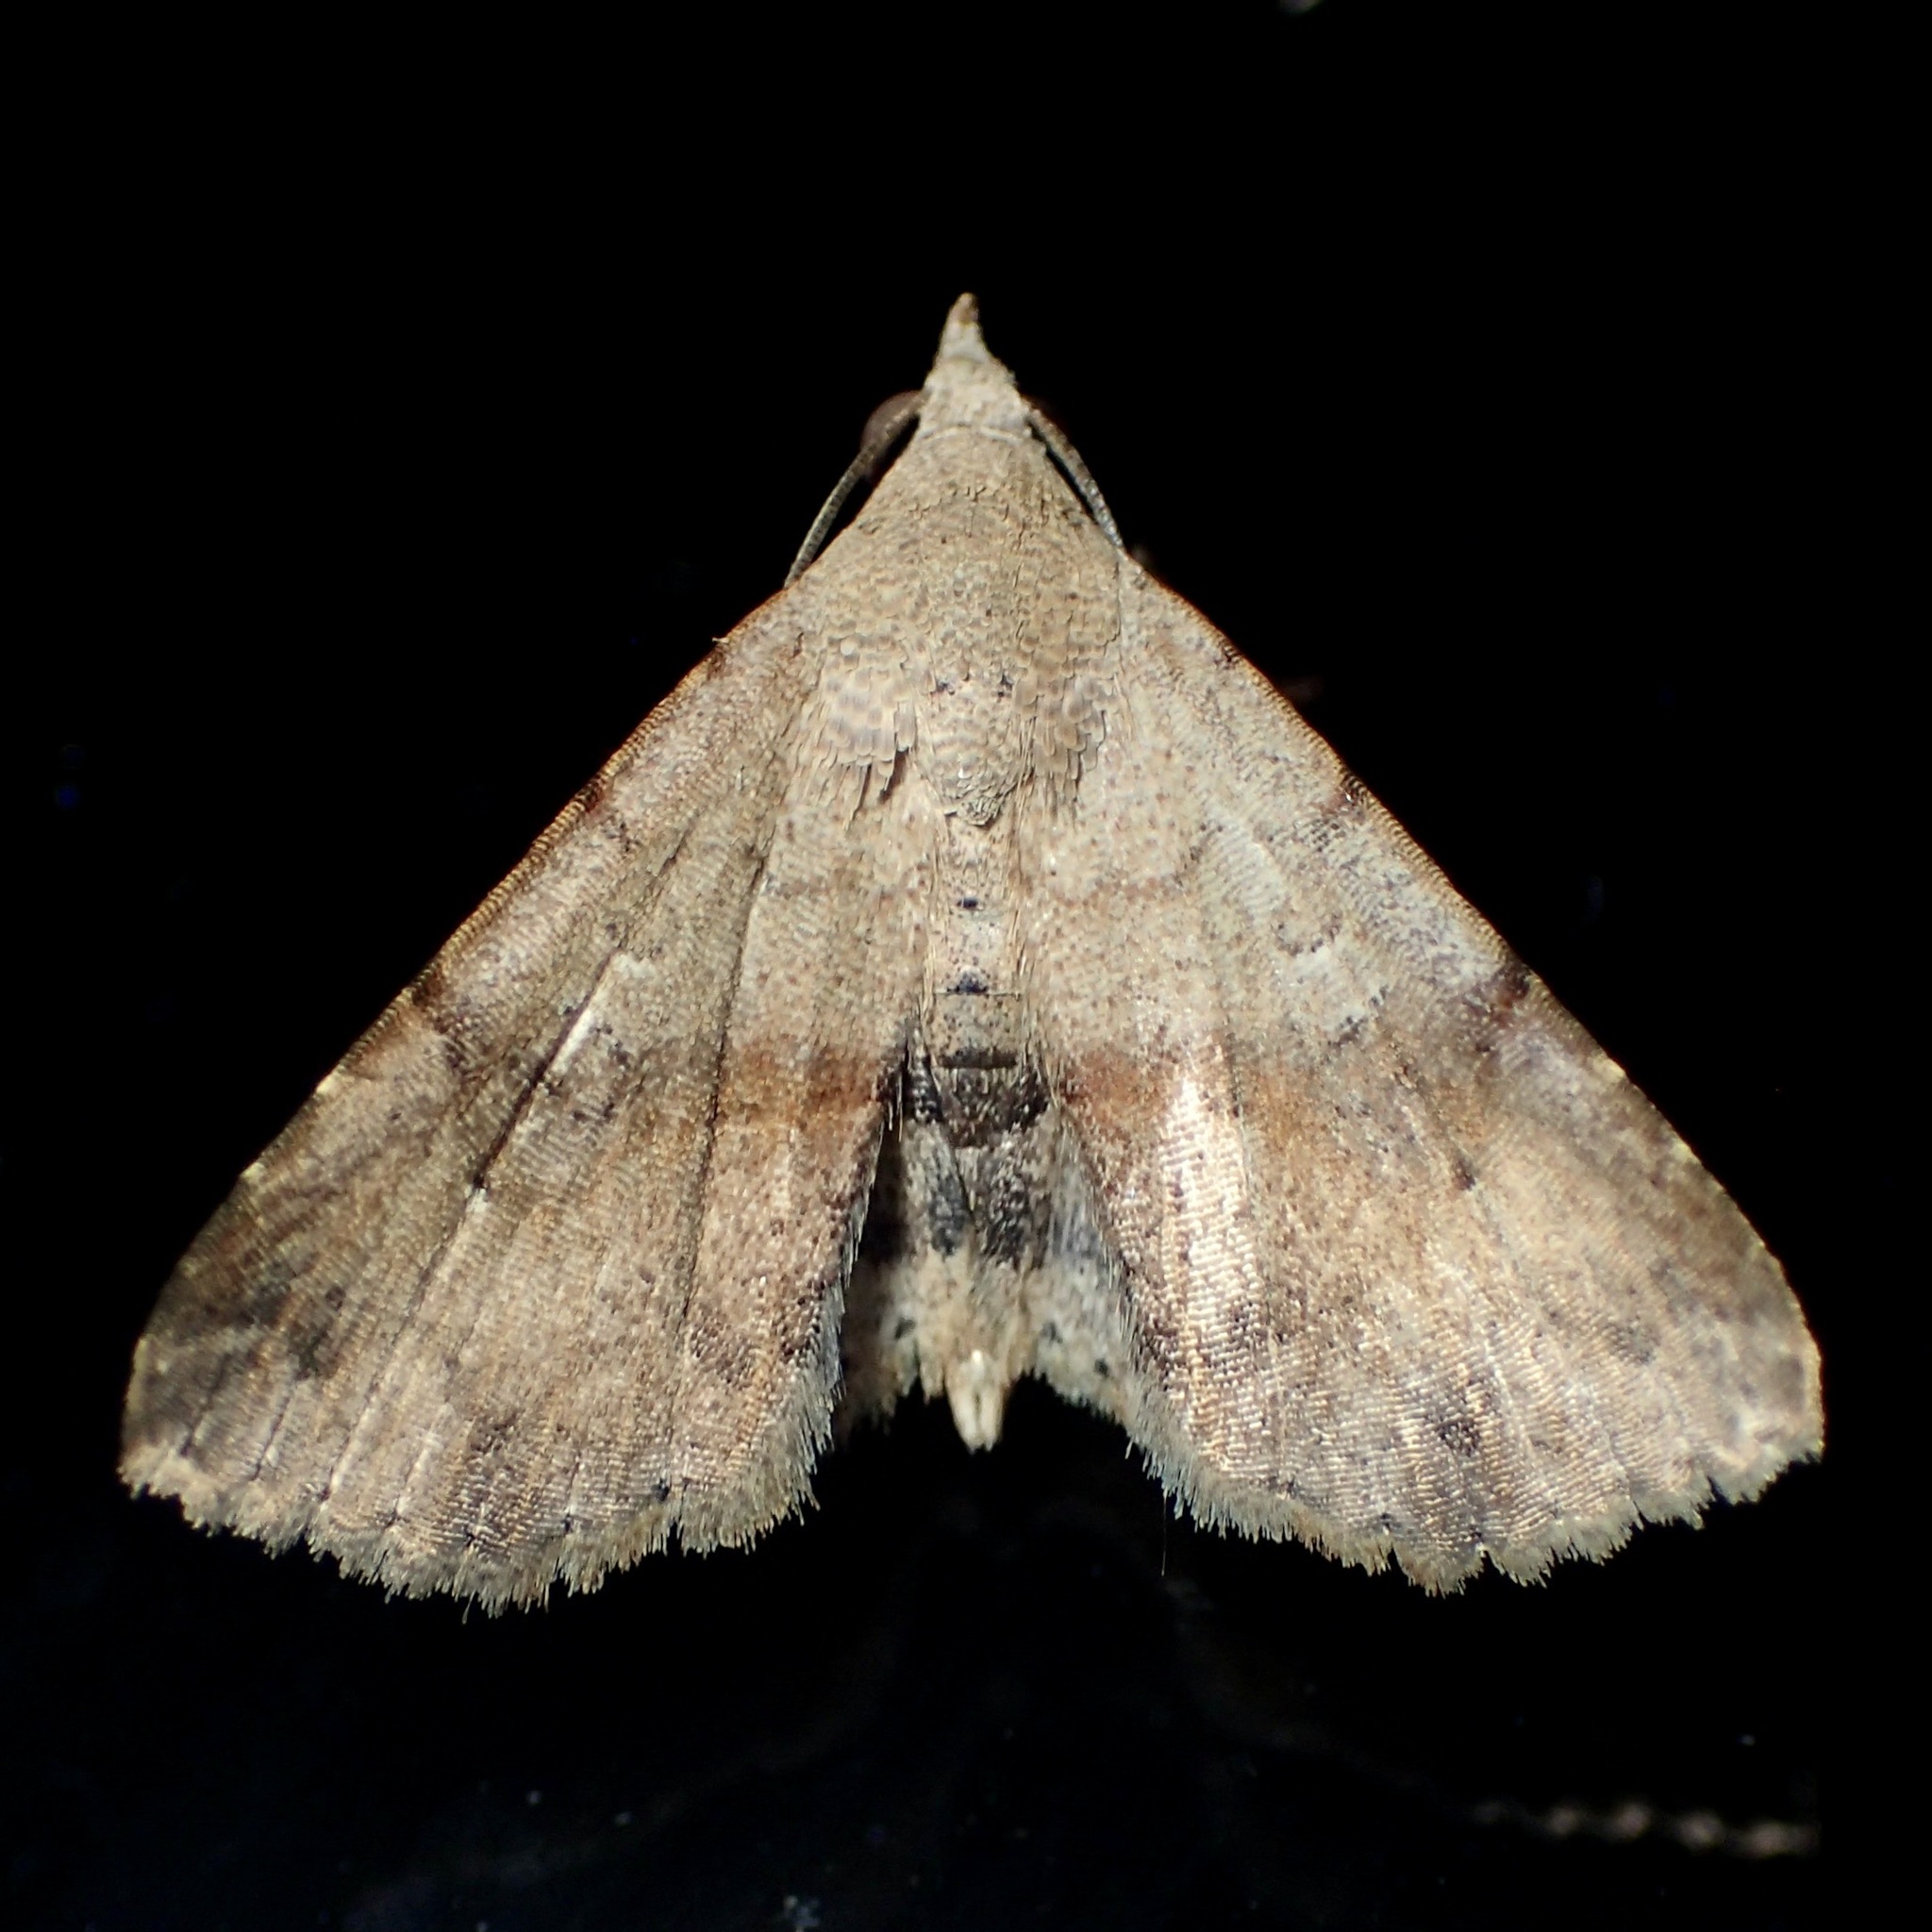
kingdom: Animalia
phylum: Arthropoda
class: Insecta
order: Lepidoptera
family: Erebidae
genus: Rhesalides
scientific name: Rhesalides curvata
